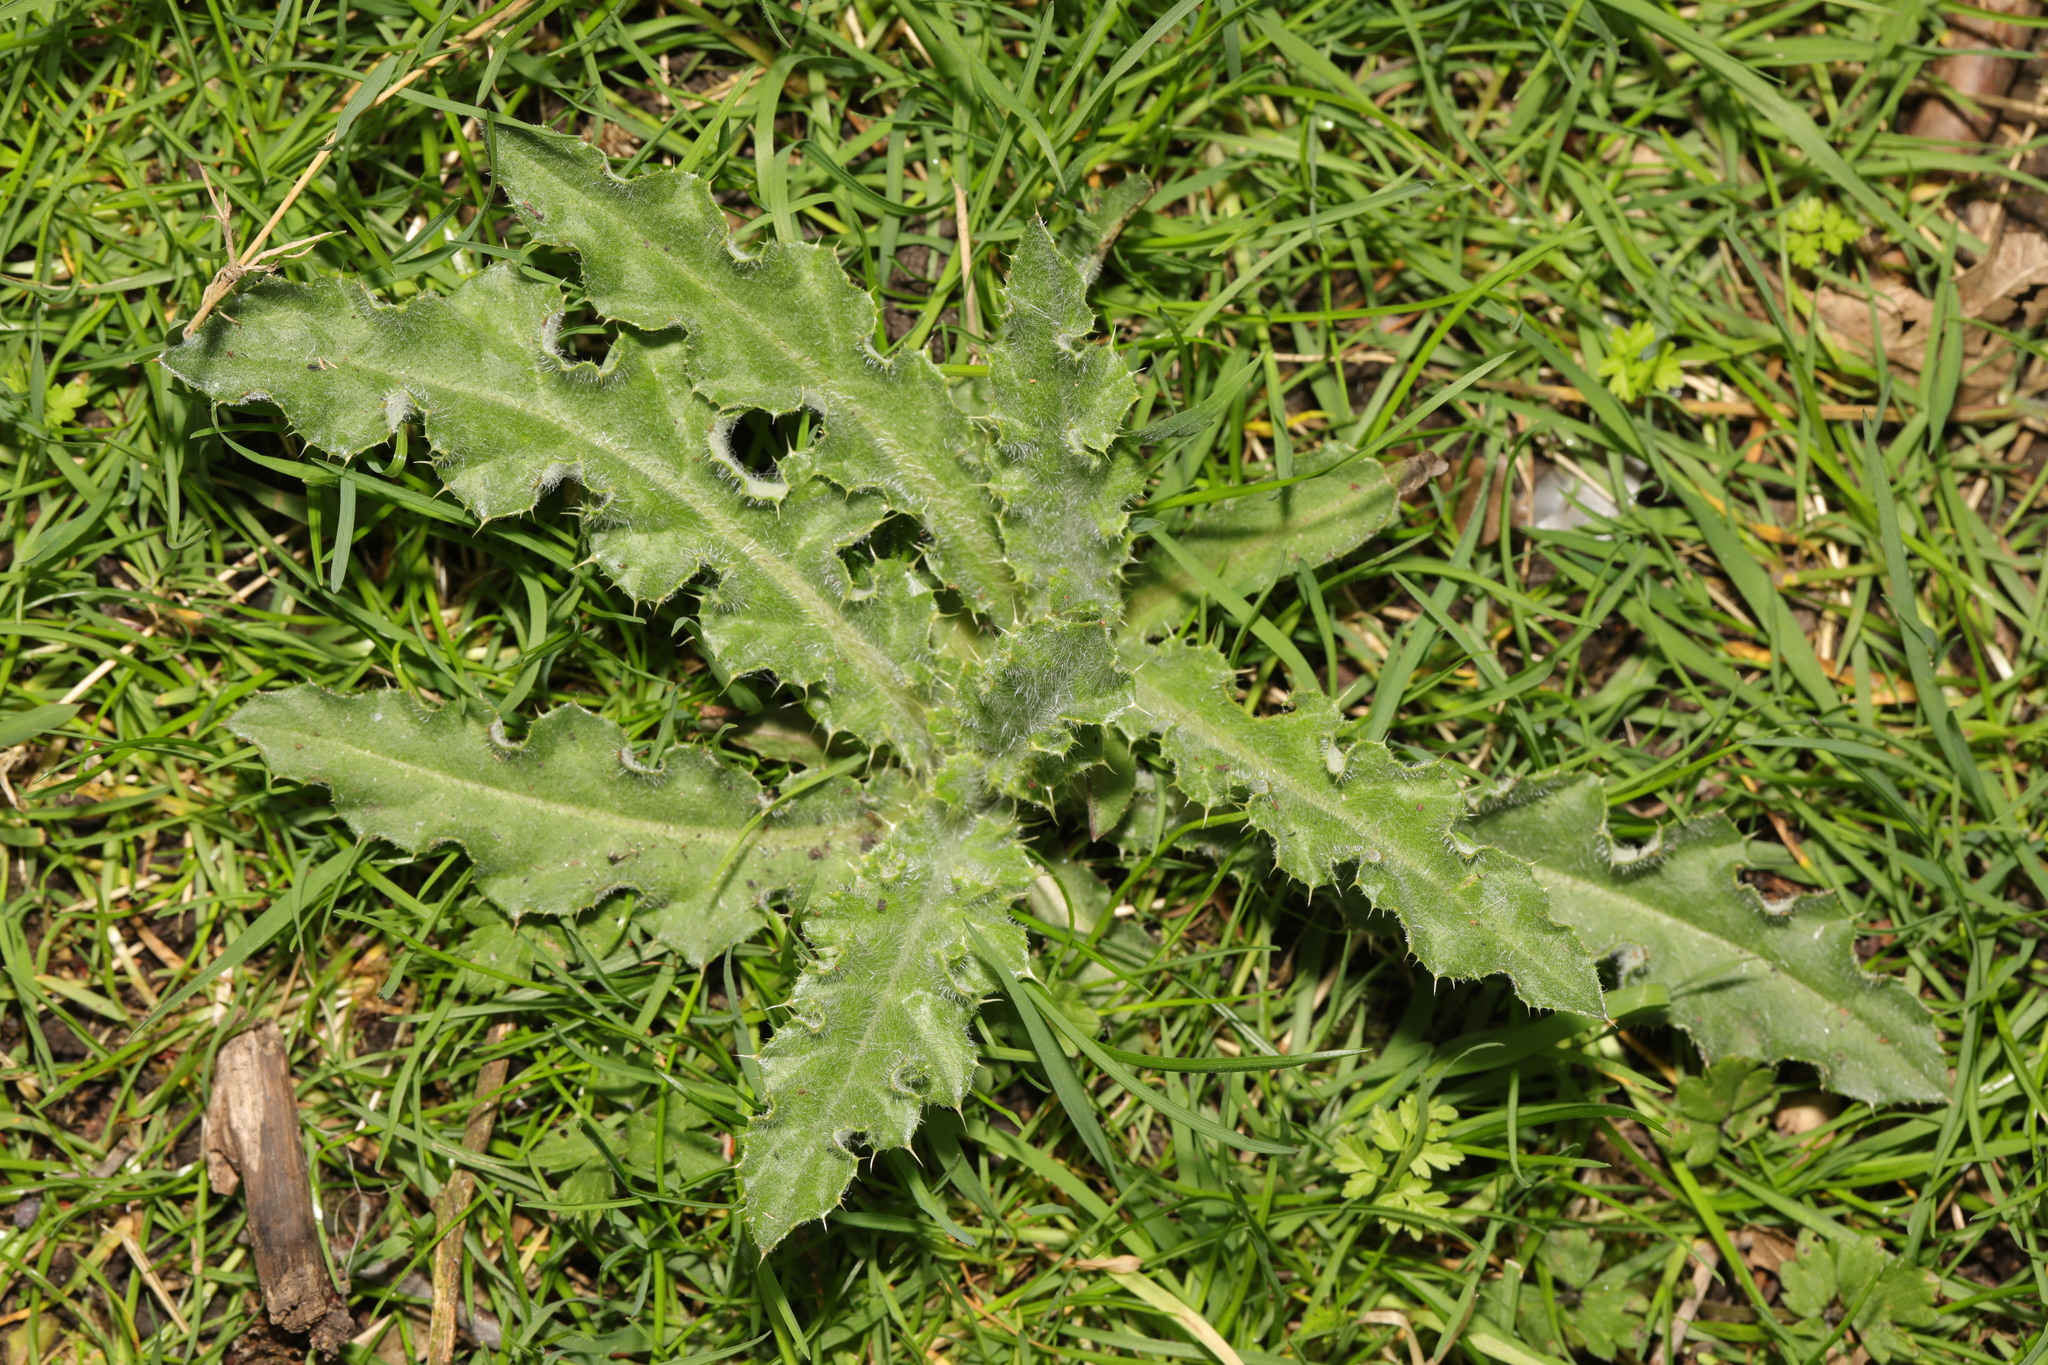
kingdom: Plantae
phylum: Tracheophyta
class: Magnoliopsida
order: Asterales
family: Asteraceae
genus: Cirsium
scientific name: Cirsium arvense
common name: Creeping thistle
